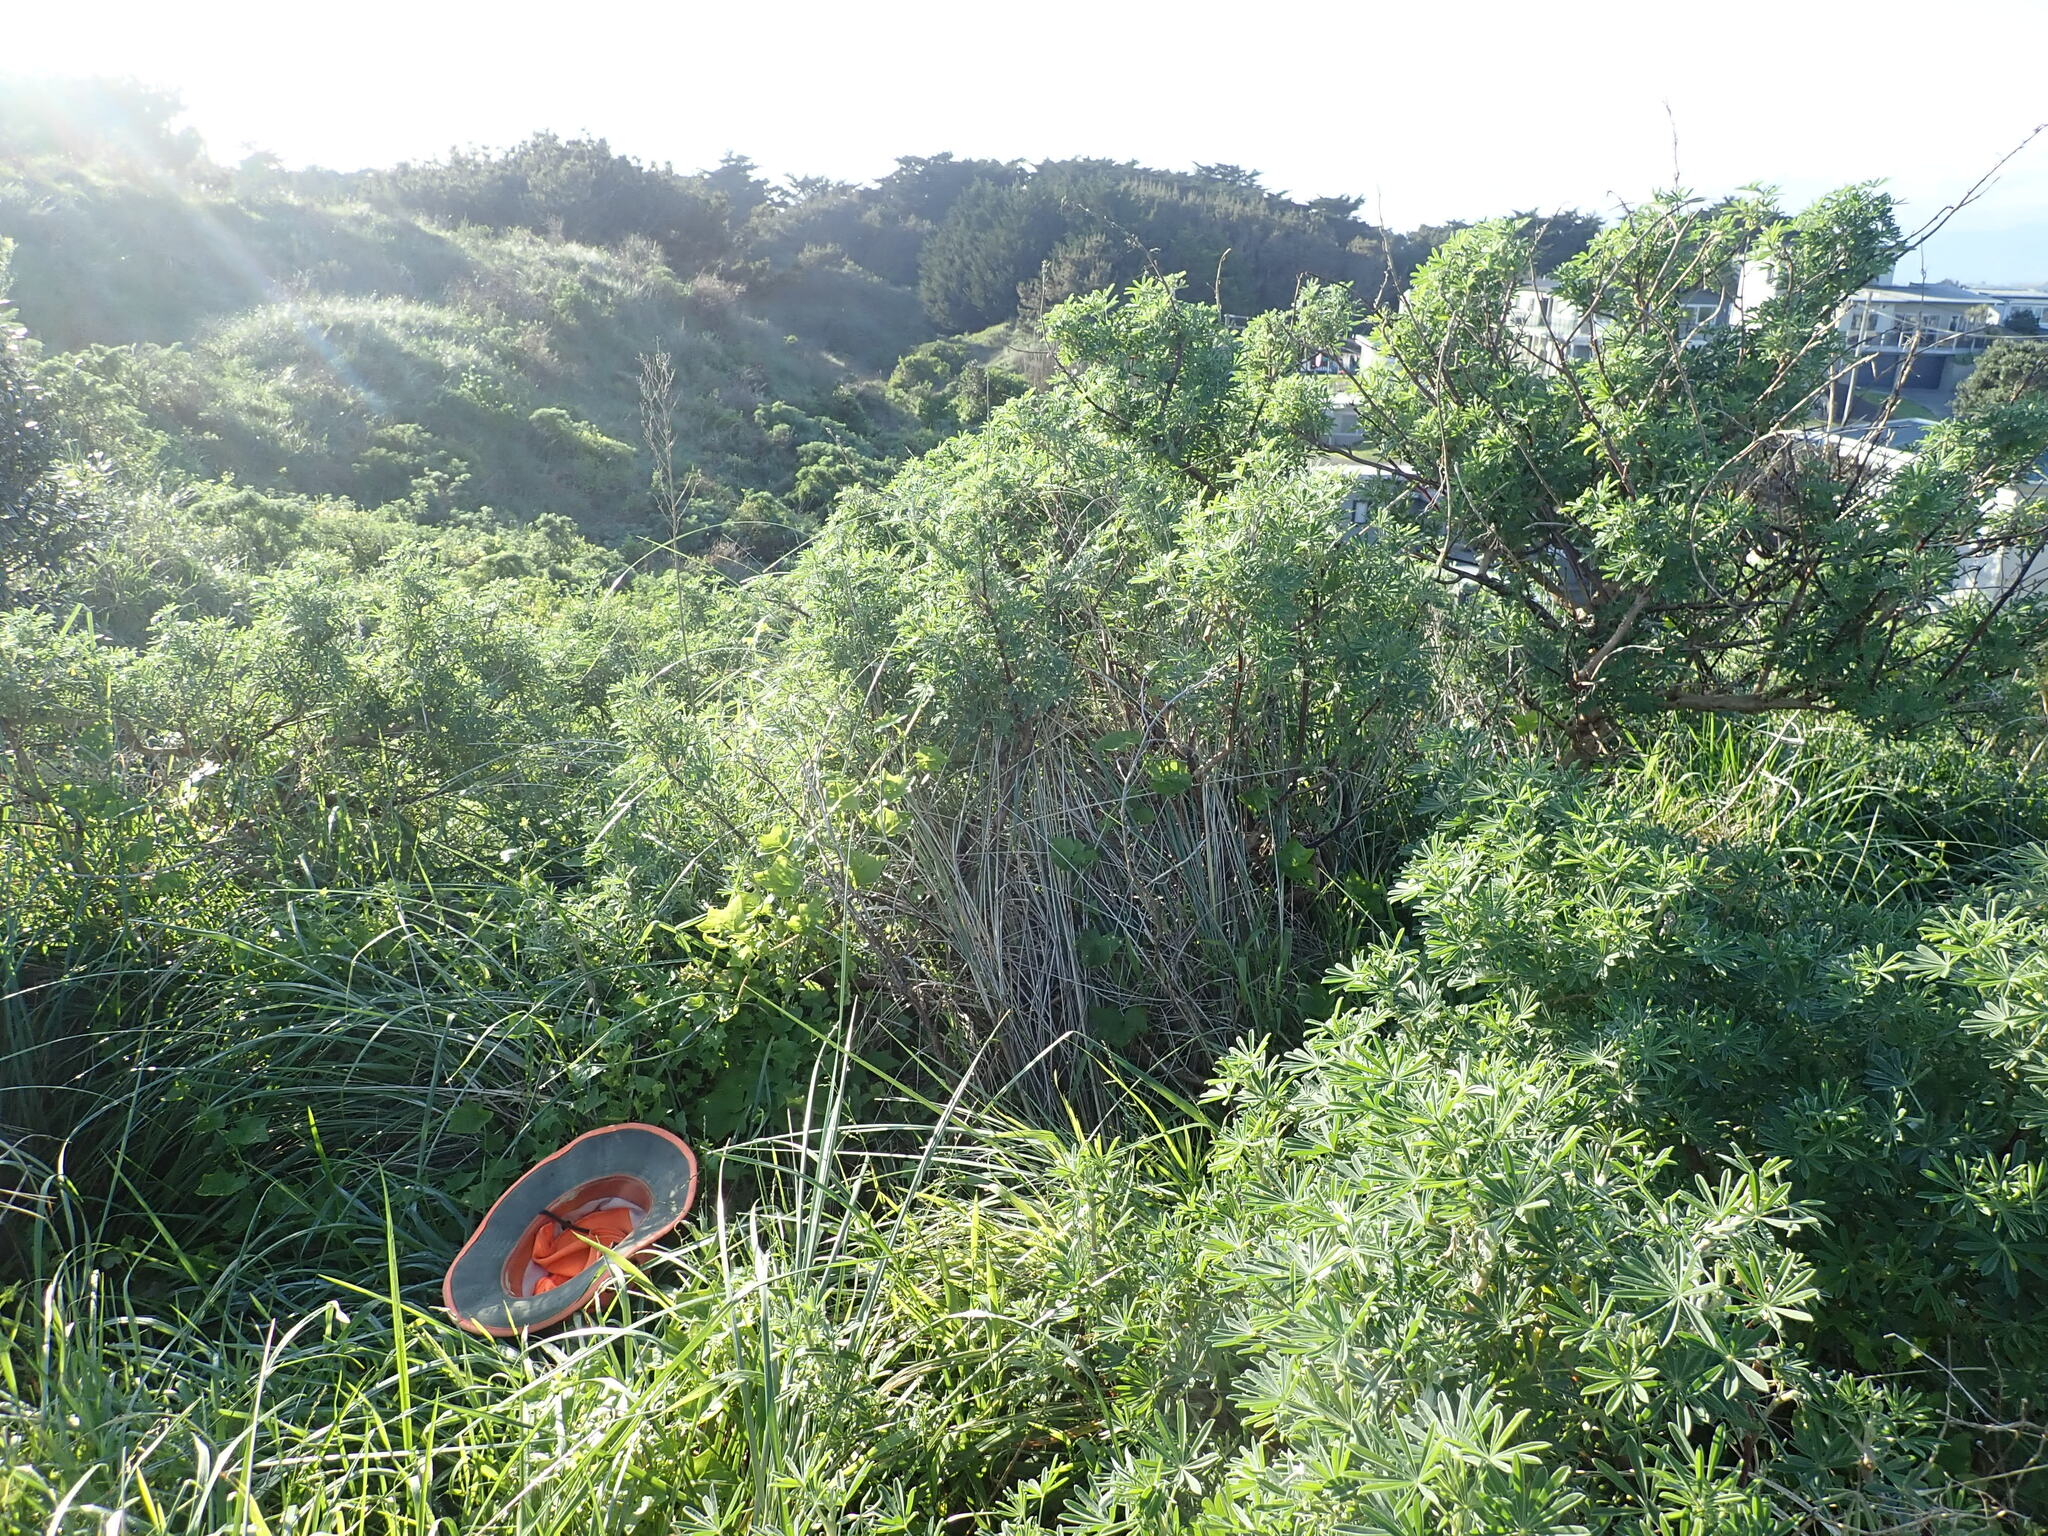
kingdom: Plantae
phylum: Tracheophyta
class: Magnoliopsida
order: Asterales
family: Asteraceae
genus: Senecio
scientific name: Senecio angulatus
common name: Climbing groundsel
